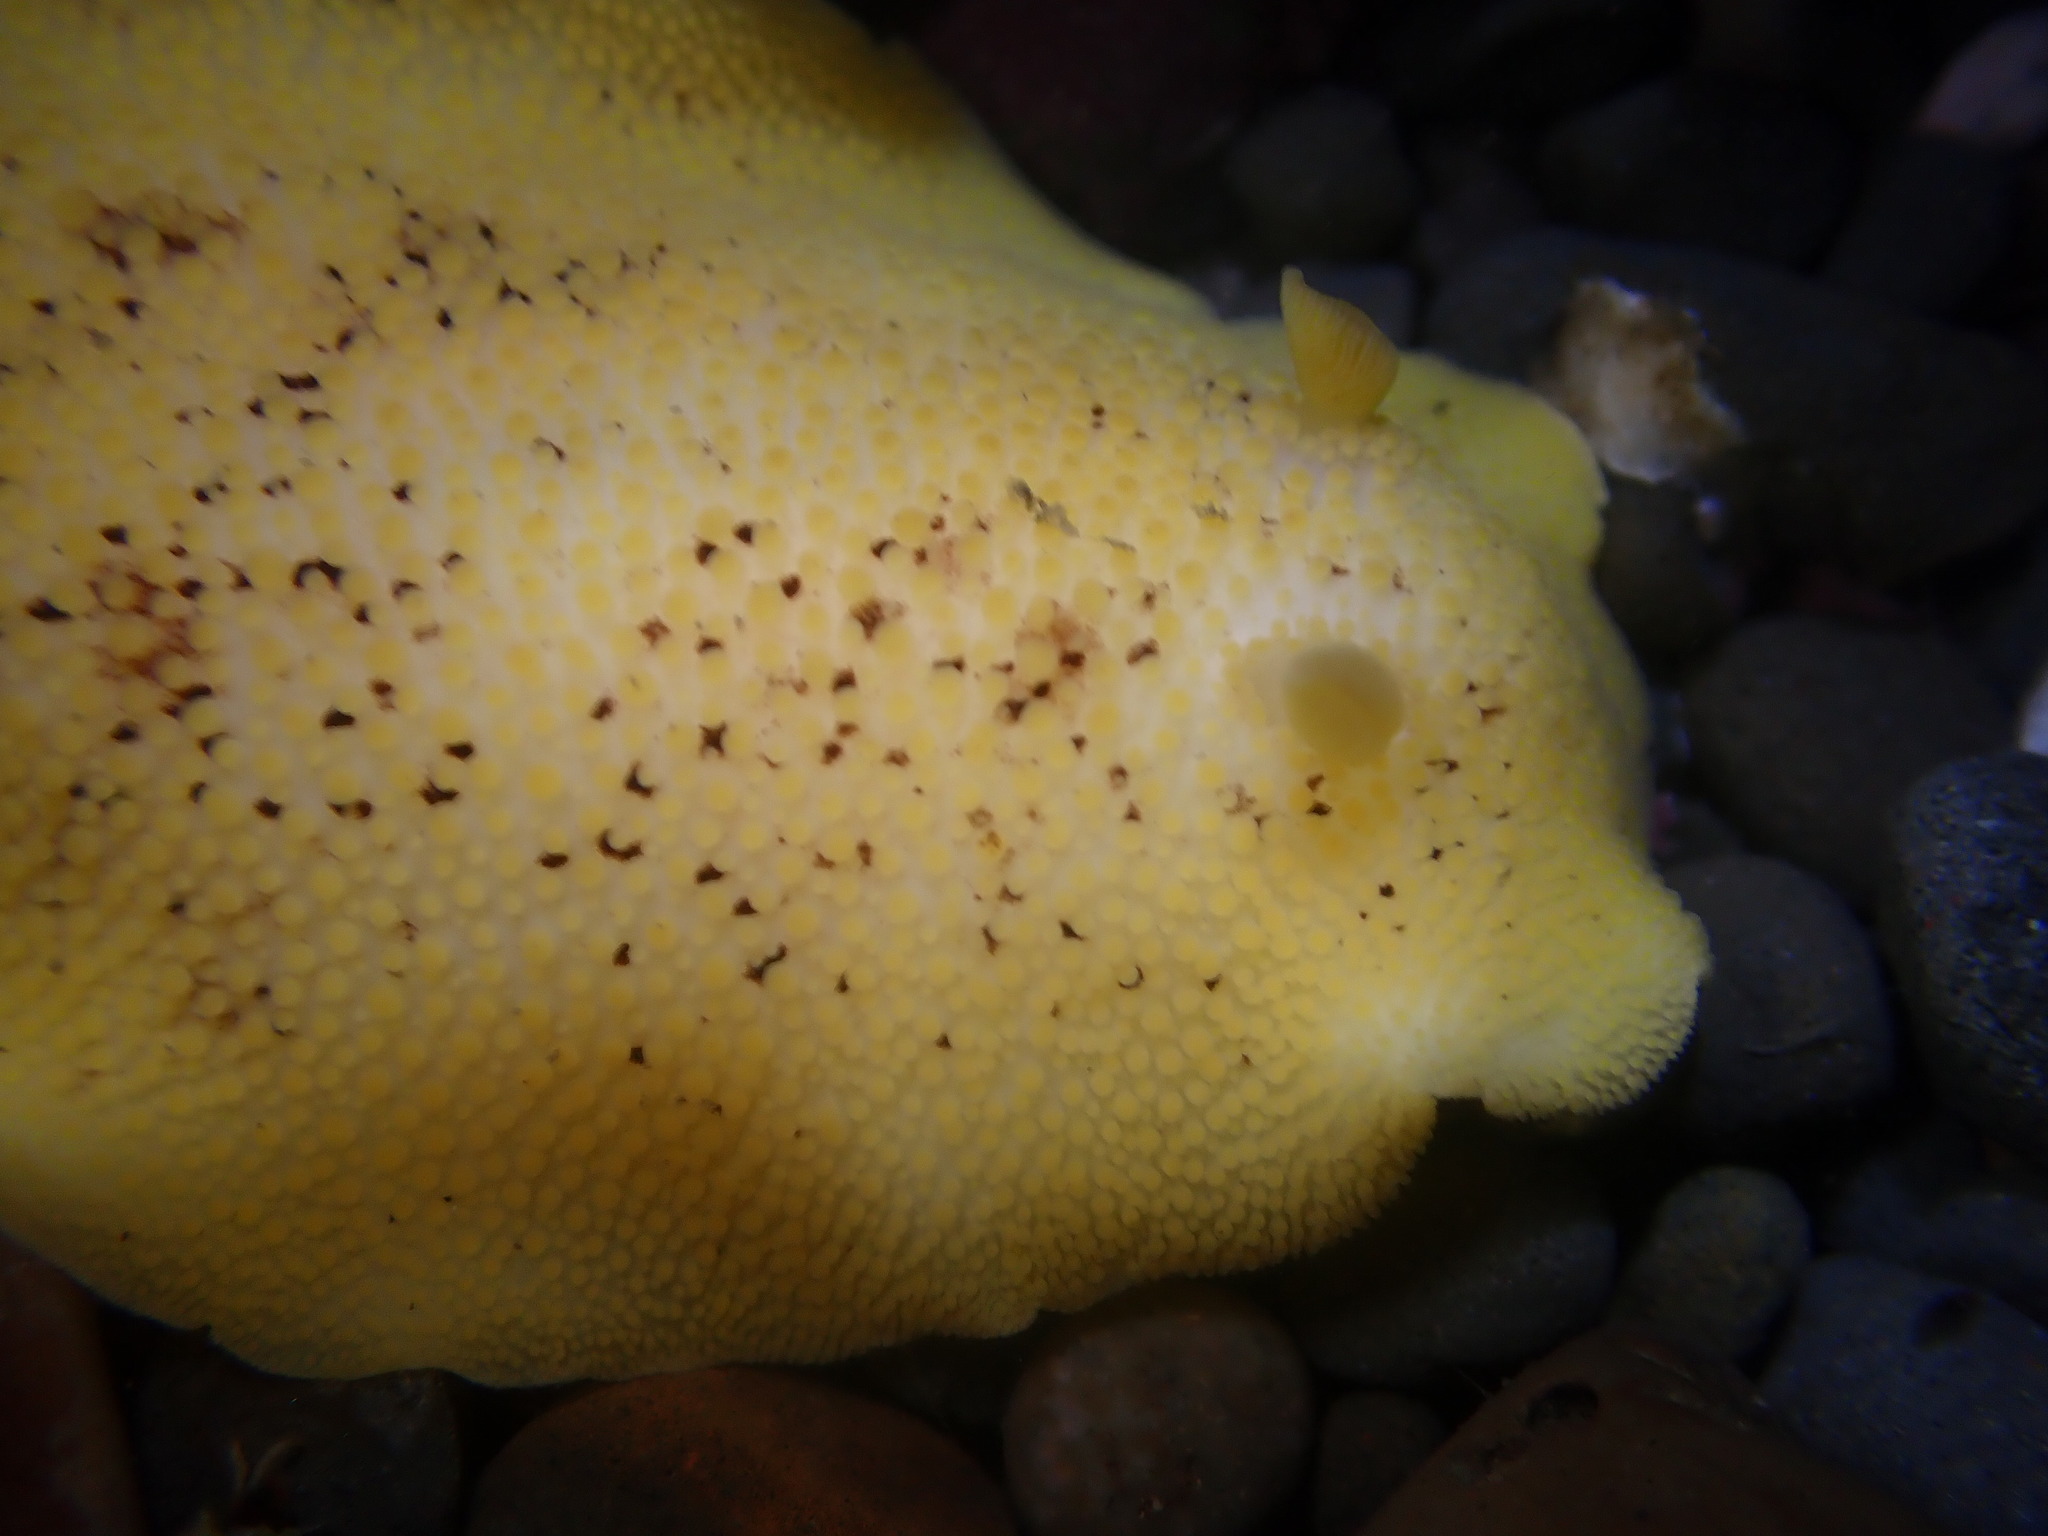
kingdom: Animalia
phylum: Mollusca
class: Gastropoda
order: Nudibranchia
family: Discodorididae
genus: Peltodoris
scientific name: Peltodoris nobilis
